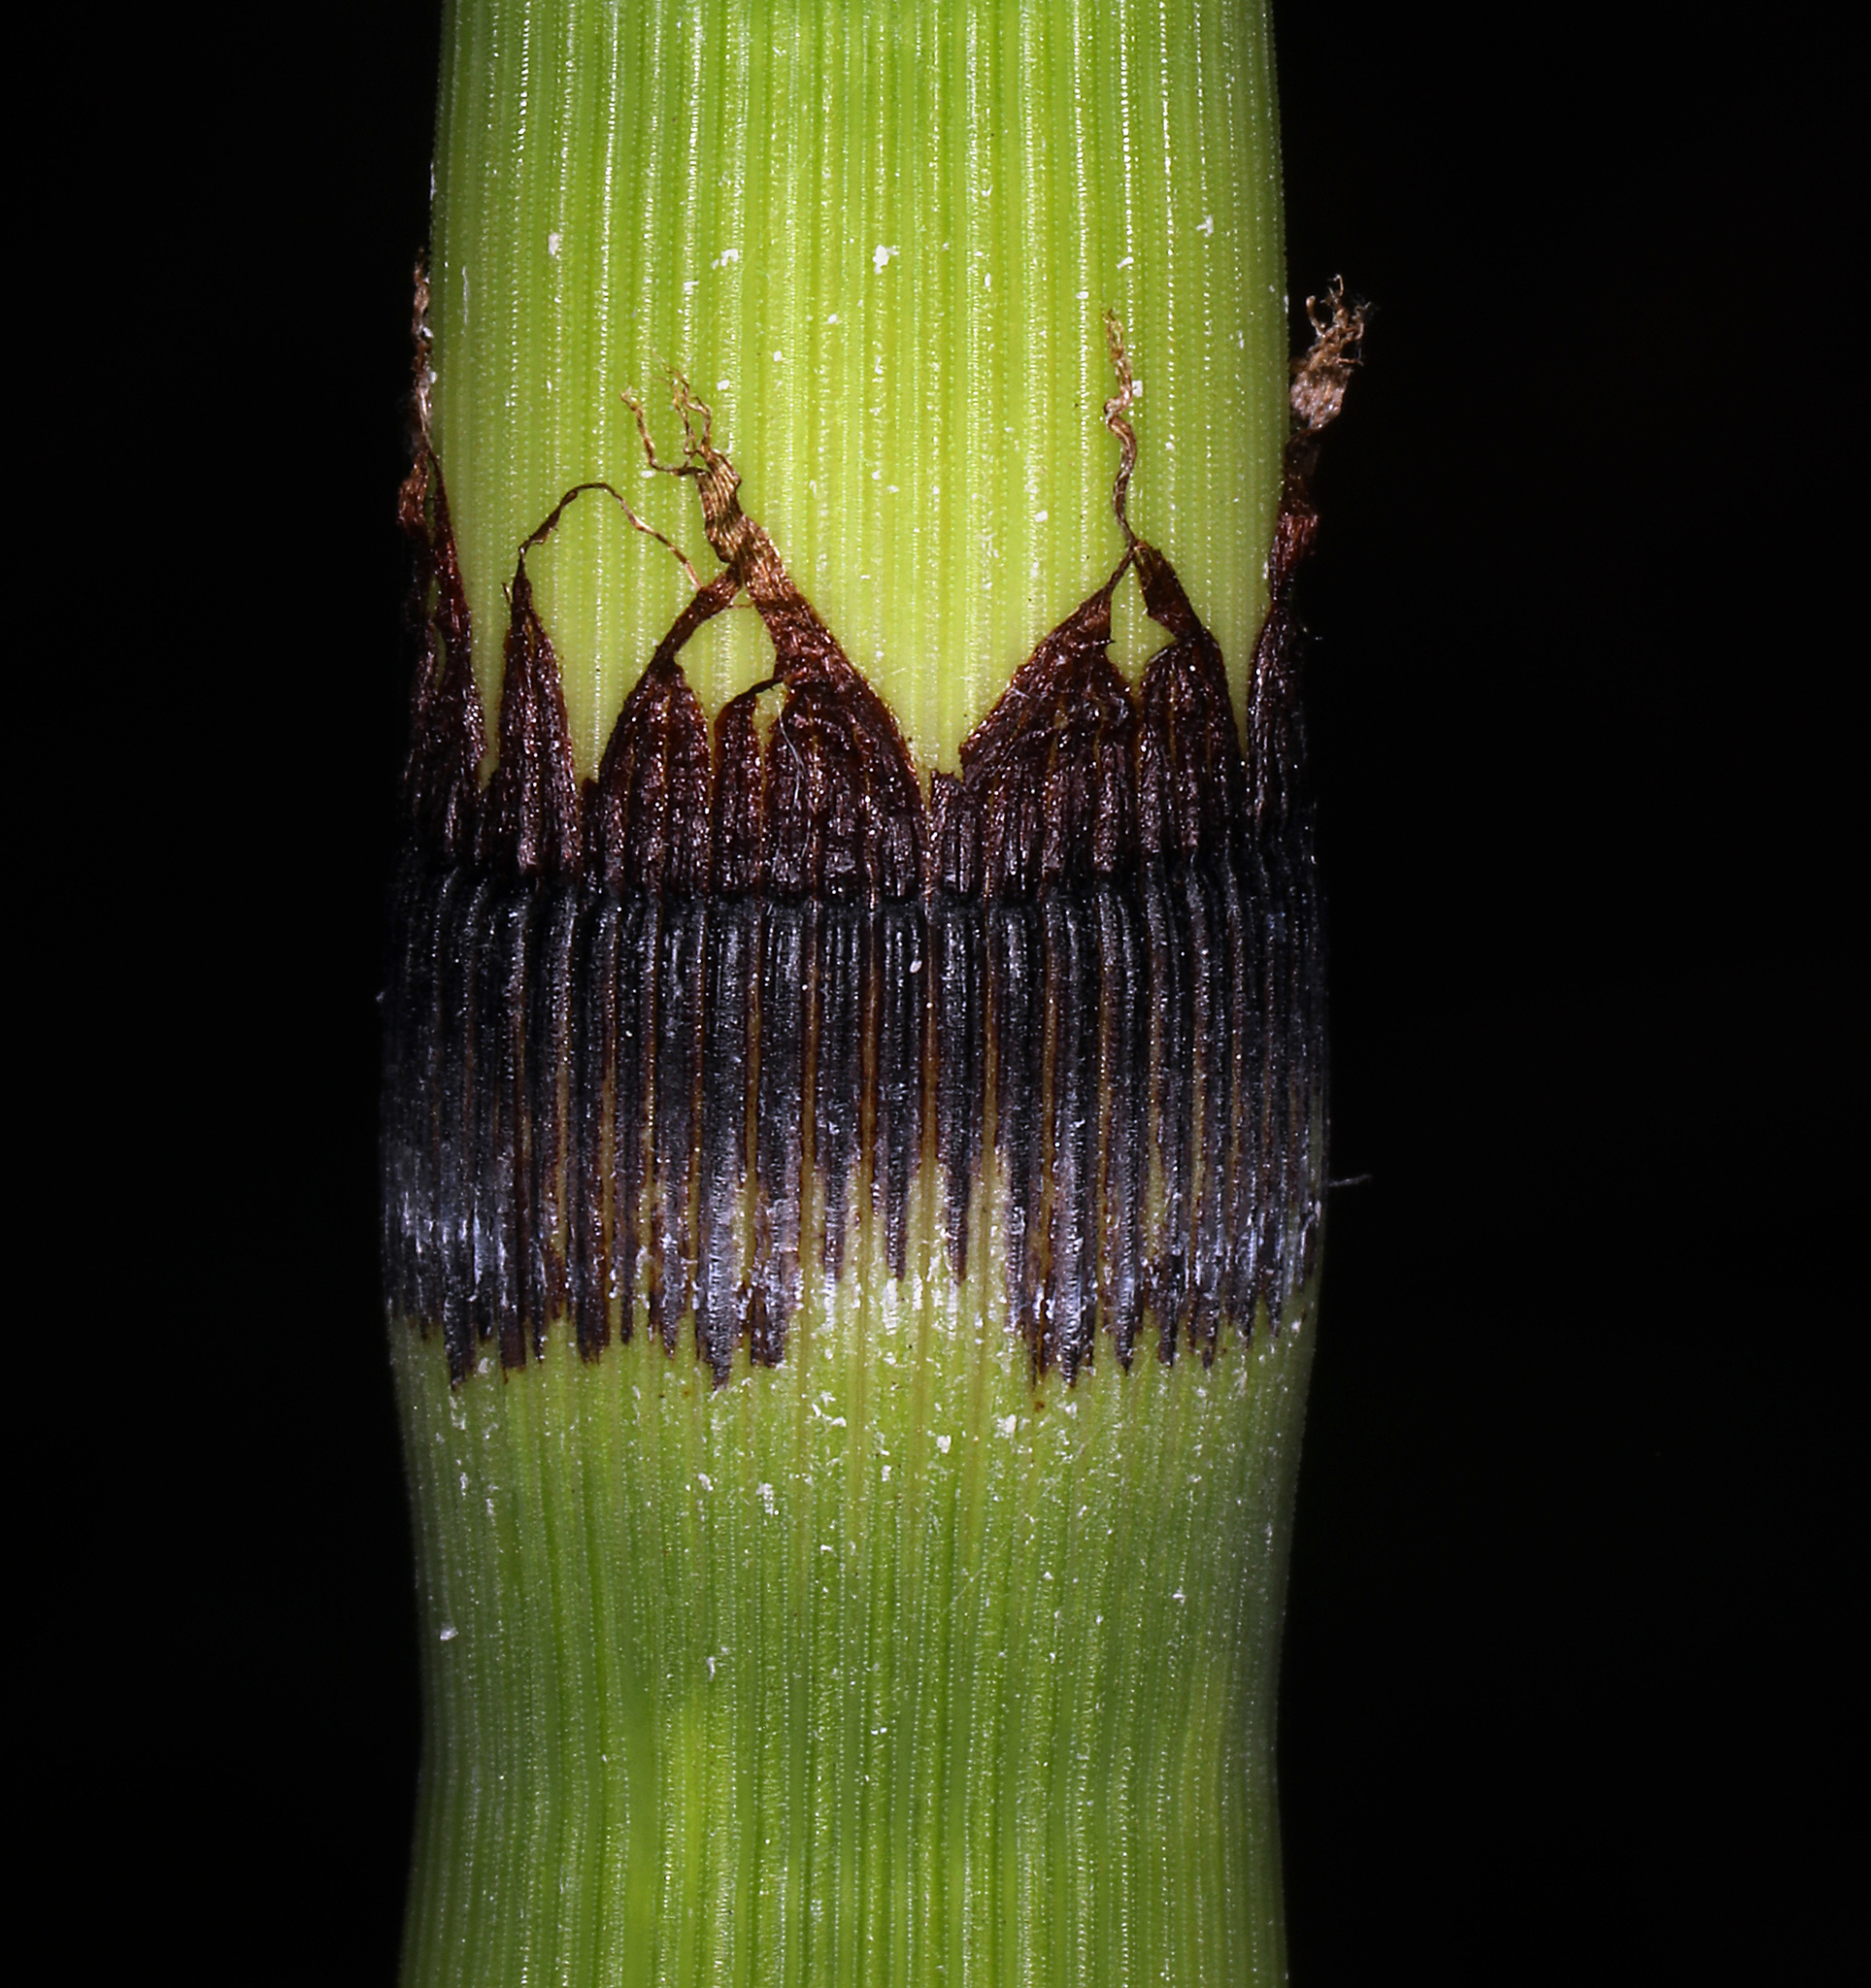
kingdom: Plantae
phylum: Tracheophyta
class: Polypodiopsida
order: Equisetales
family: Equisetaceae
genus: Equisetum
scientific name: Equisetum praealtum
